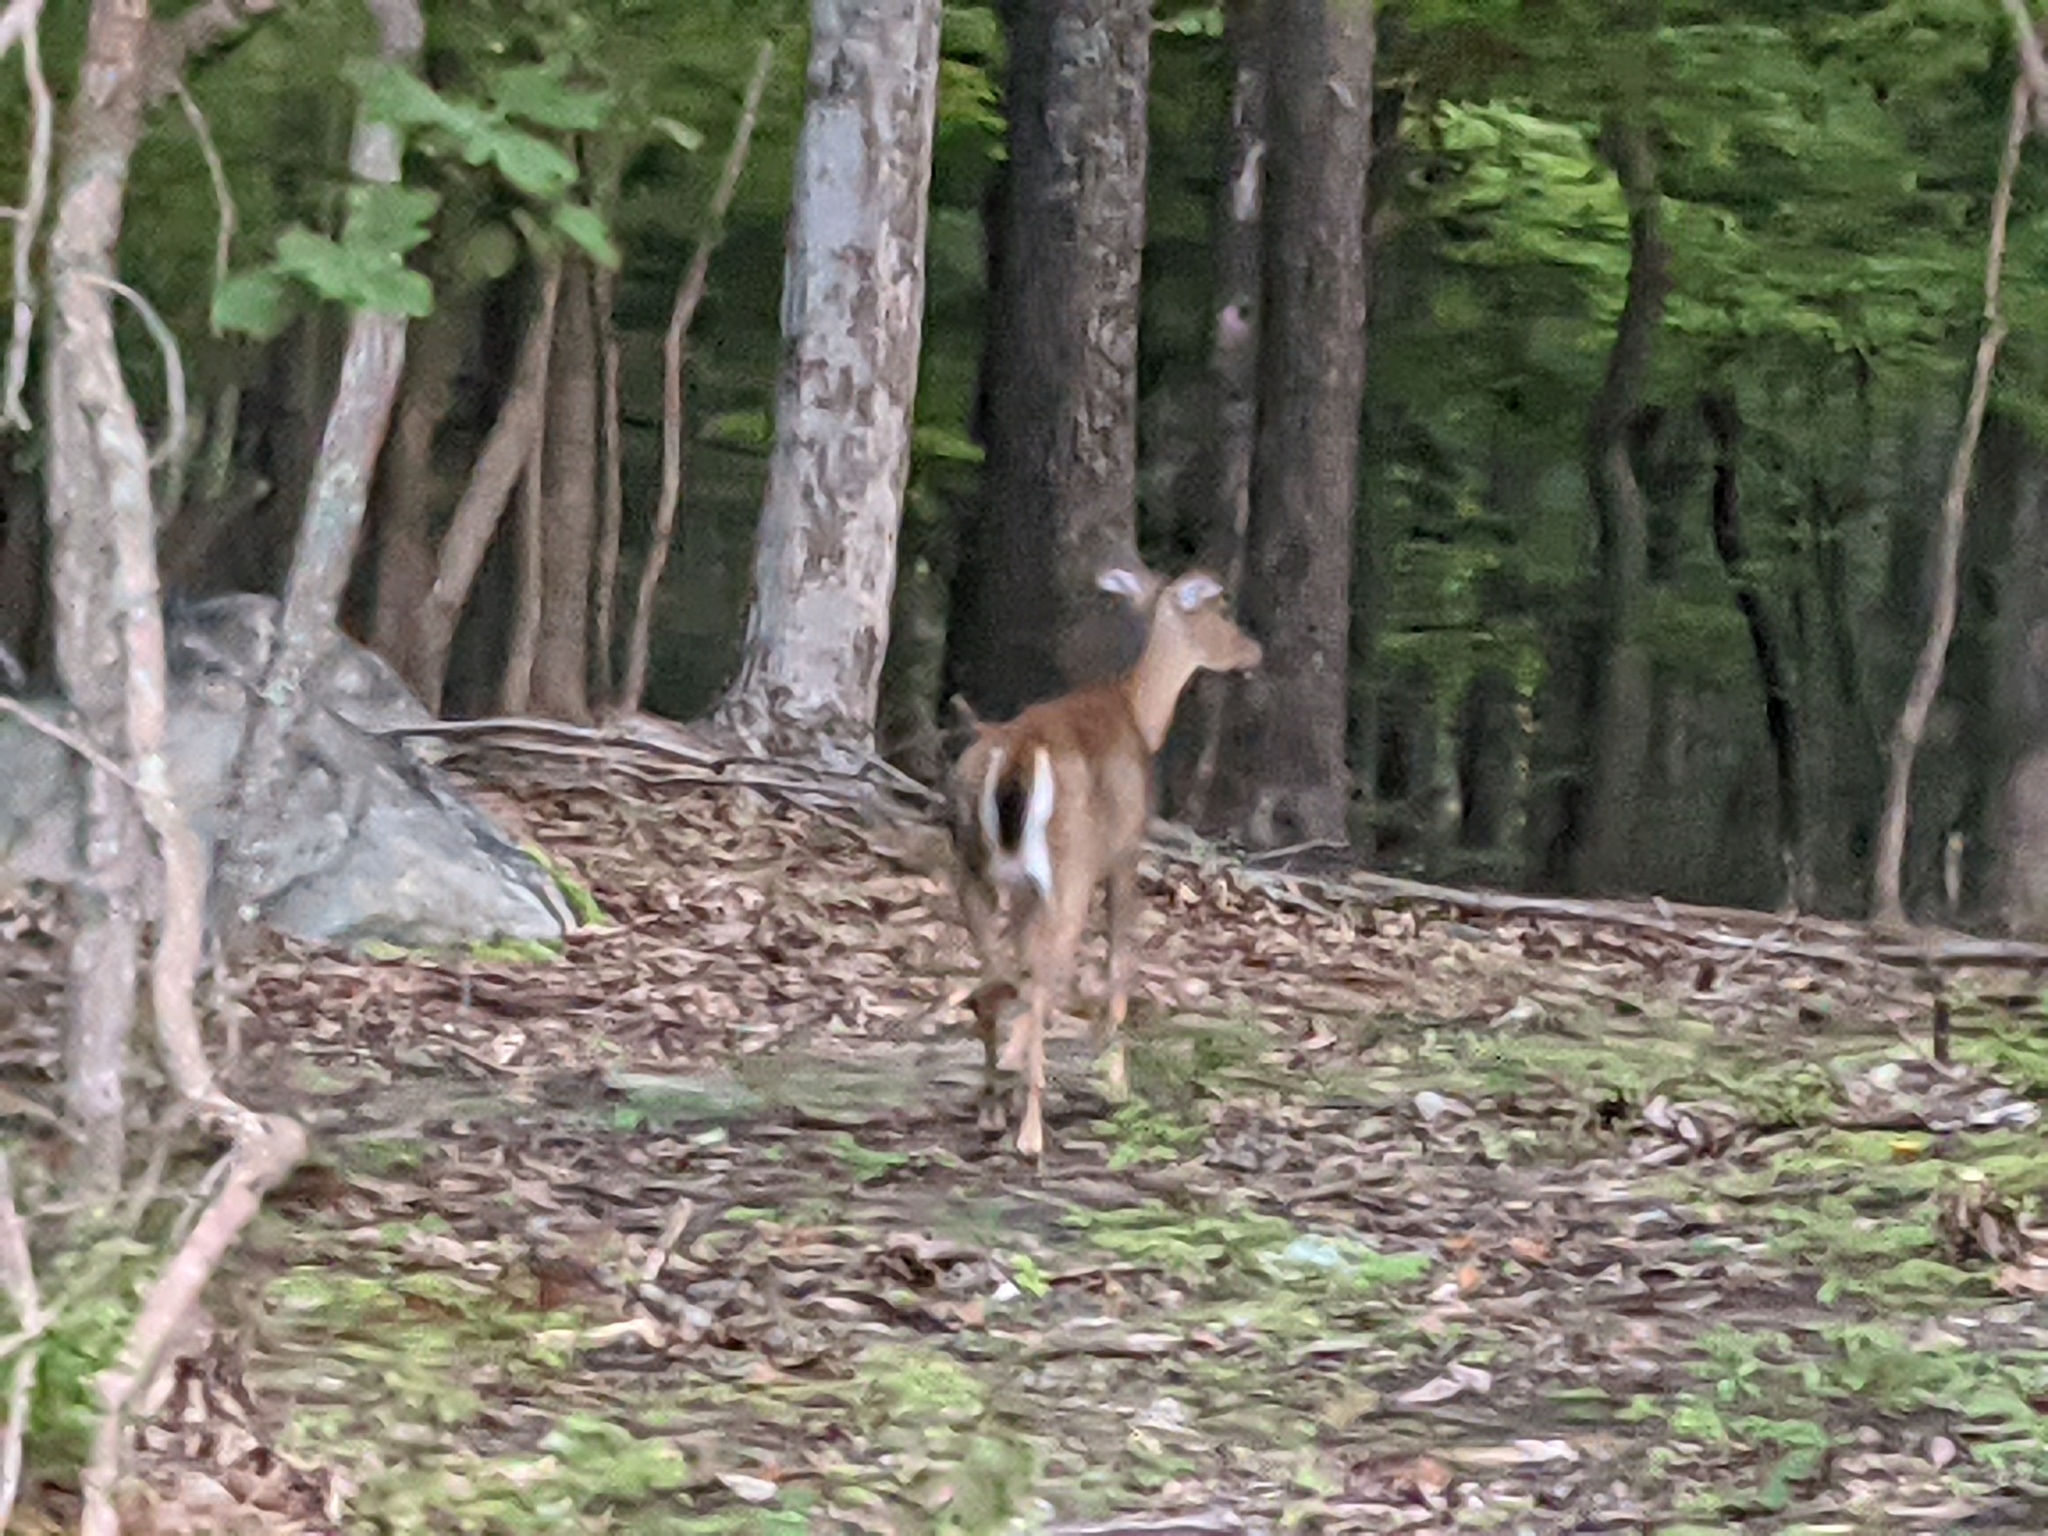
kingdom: Animalia
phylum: Chordata
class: Mammalia
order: Artiodactyla
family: Cervidae
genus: Odocoileus
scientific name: Odocoileus virginianus
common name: White-tailed deer
